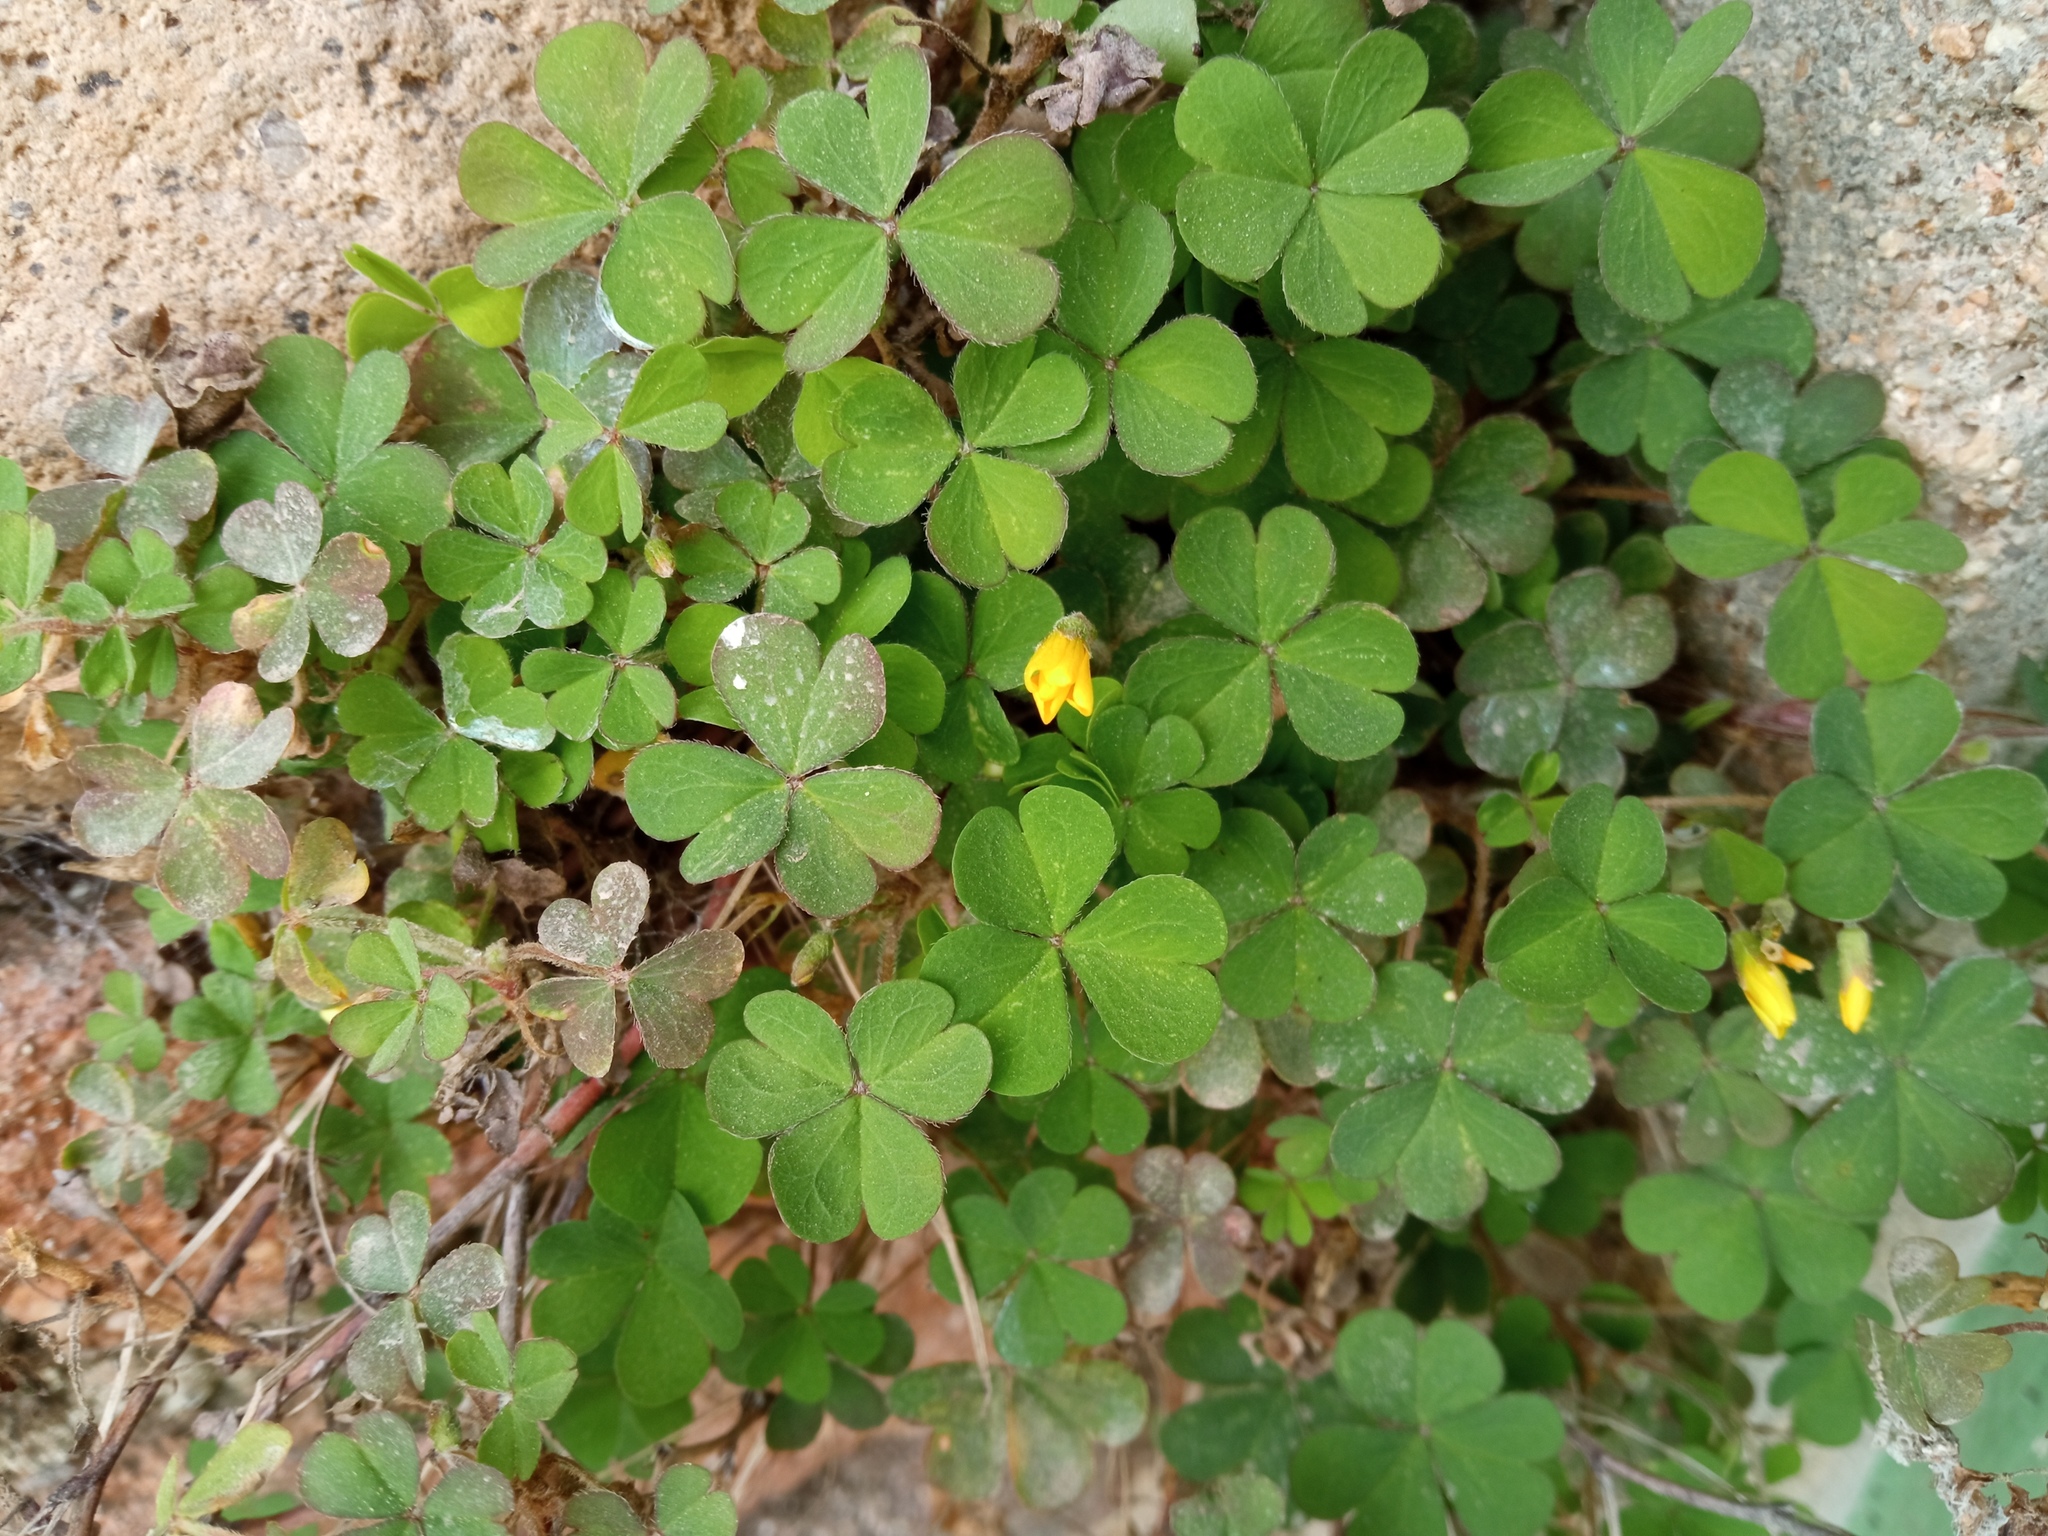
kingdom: Plantae
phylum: Tracheophyta
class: Magnoliopsida
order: Oxalidales
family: Oxalidaceae
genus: Oxalis
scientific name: Oxalis corniculata
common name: Procumbent yellow-sorrel
